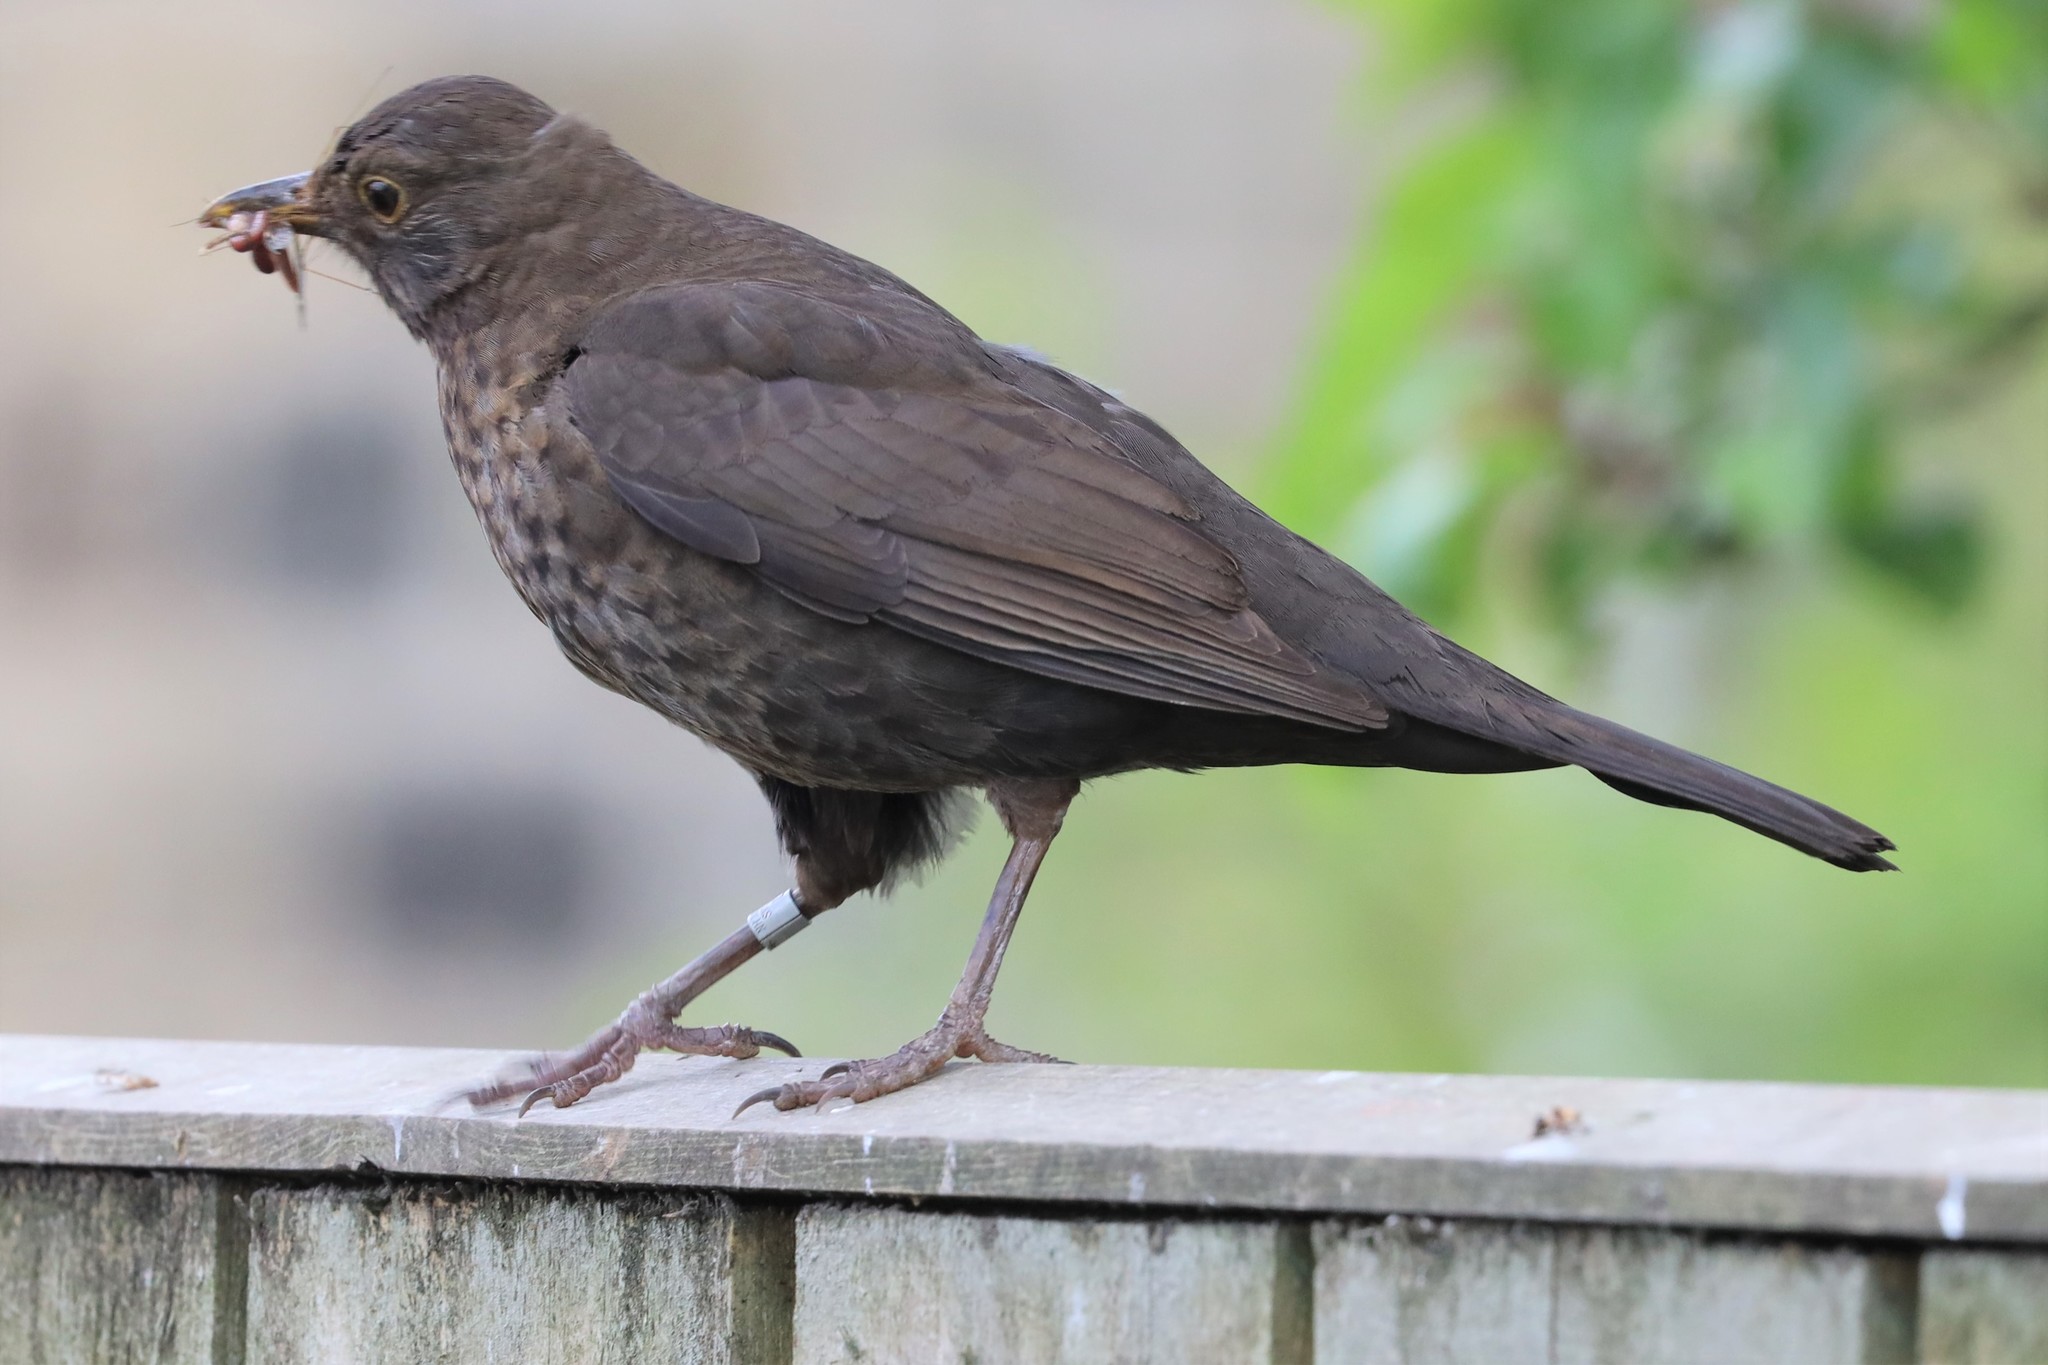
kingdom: Animalia
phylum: Chordata
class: Aves
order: Passeriformes
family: Turdidae
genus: Turdus
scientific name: Turdus merula
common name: Common blackbird
